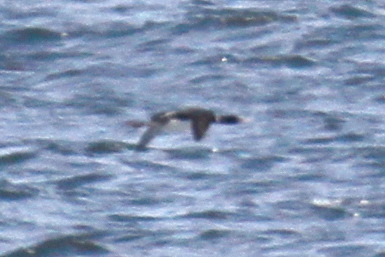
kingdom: Animalia
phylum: Chordata
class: Aves
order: Gaviiformes
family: Gaviidae
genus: Gavia
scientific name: Gavia adamsii
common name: Yellow-billed loon
